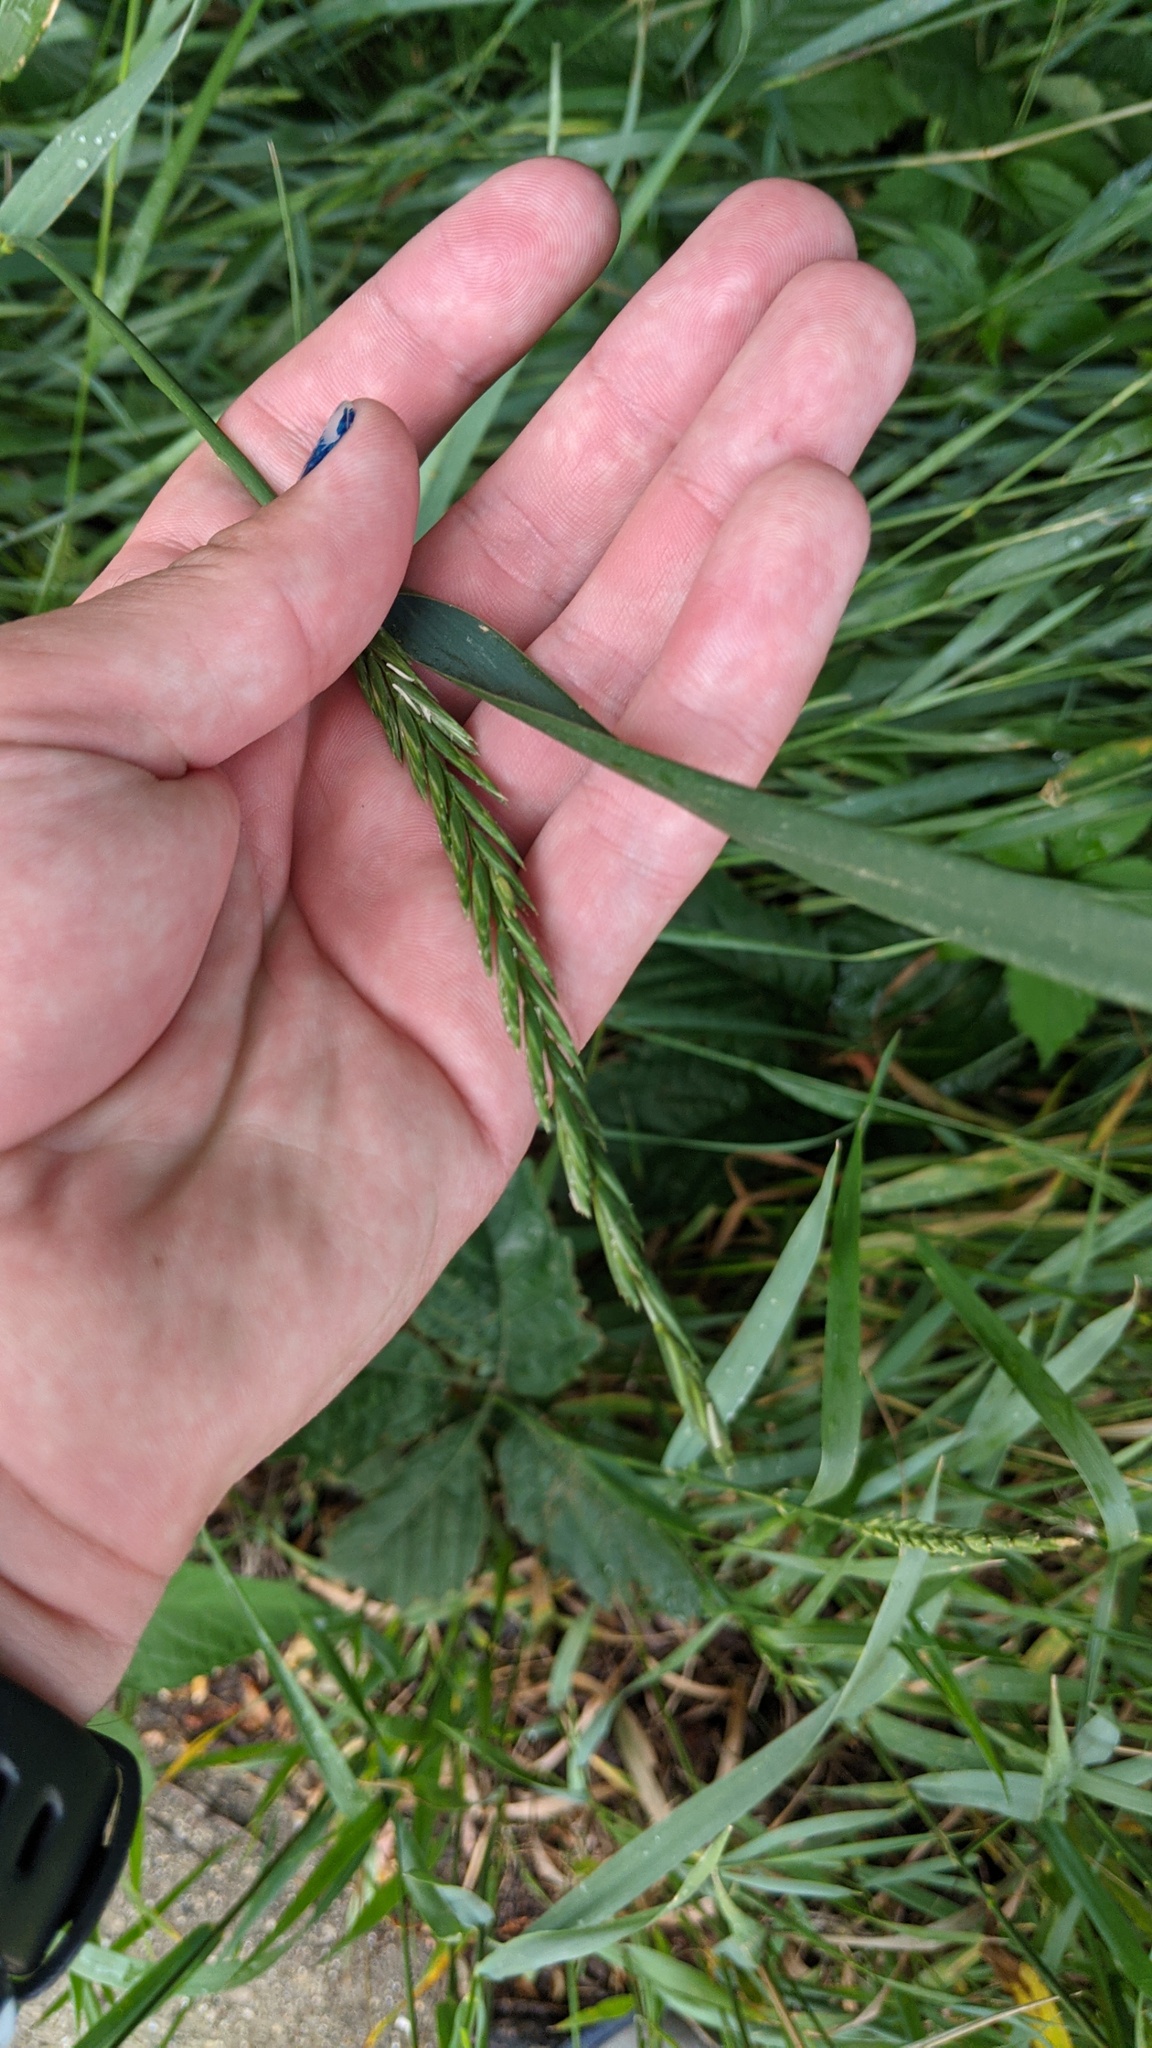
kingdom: Plantae
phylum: Tracheophyta
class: Liliopsida
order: Poales
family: Poaceae
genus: Elymus
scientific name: Elymus repens
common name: Quackgrass
